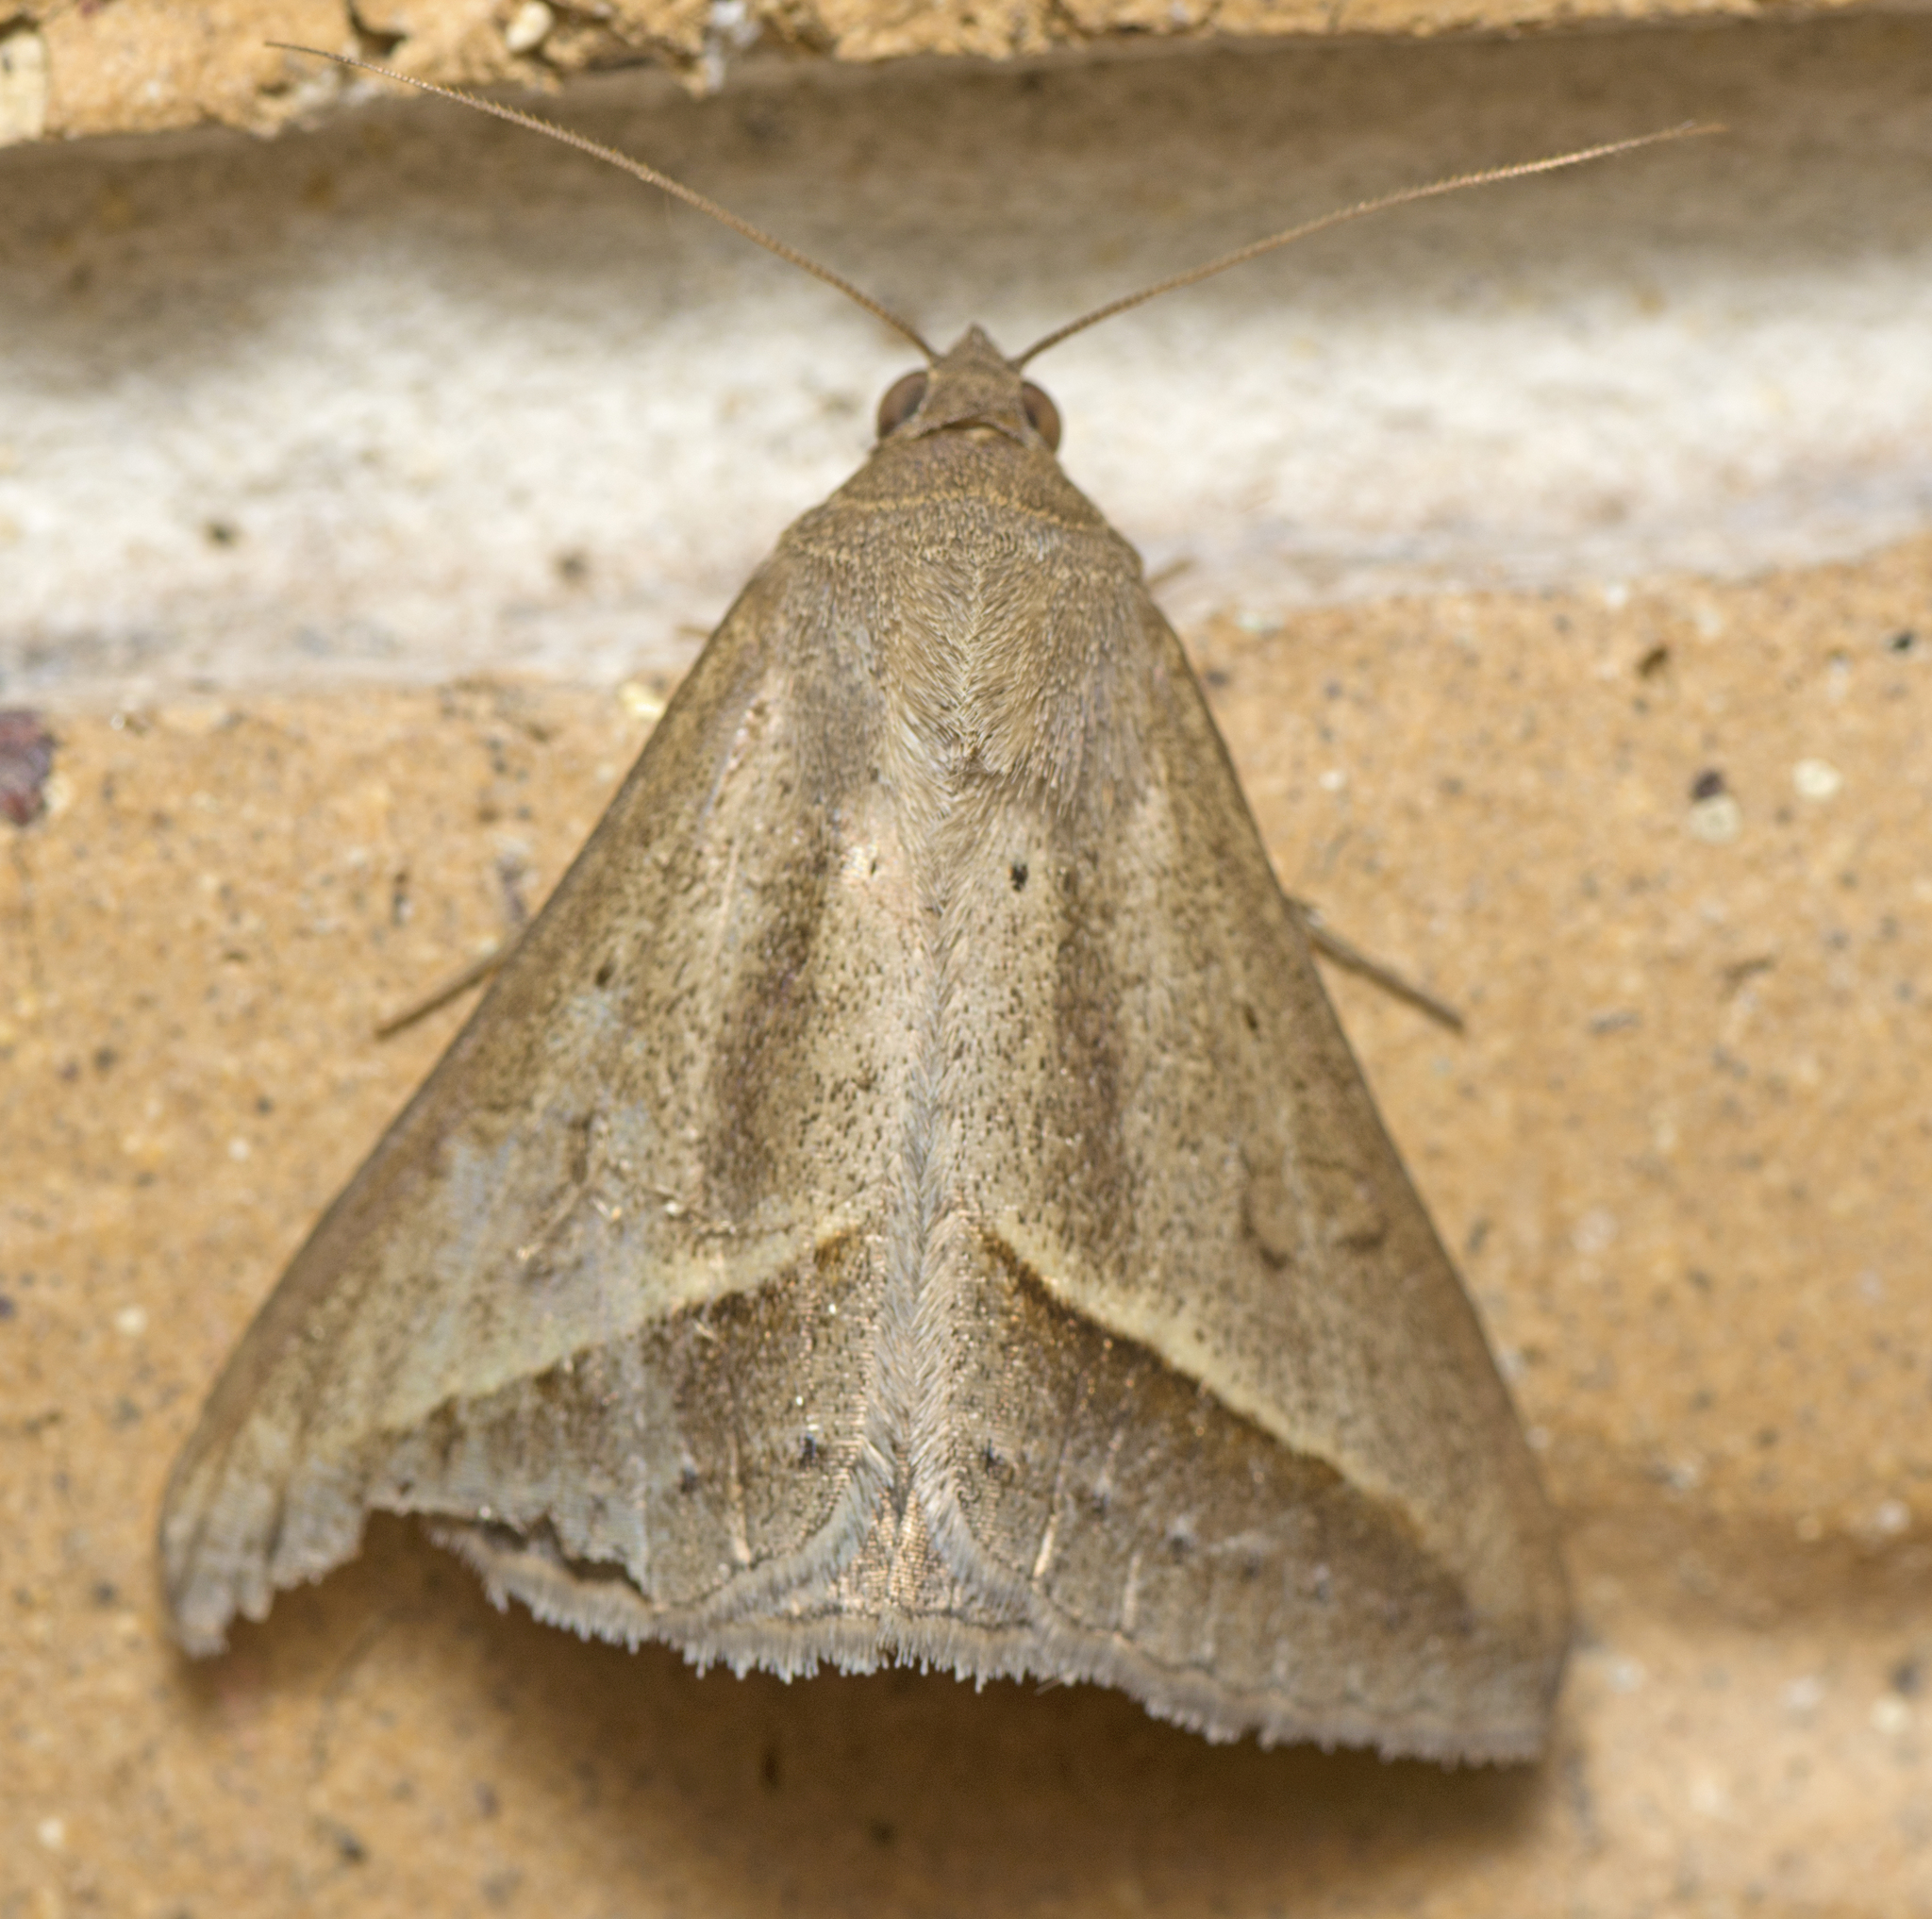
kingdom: Animalia
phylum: Arthropoda
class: Insecta
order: Lepidoptera
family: Erebidae
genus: Mocis
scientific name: Mocis frugalis
